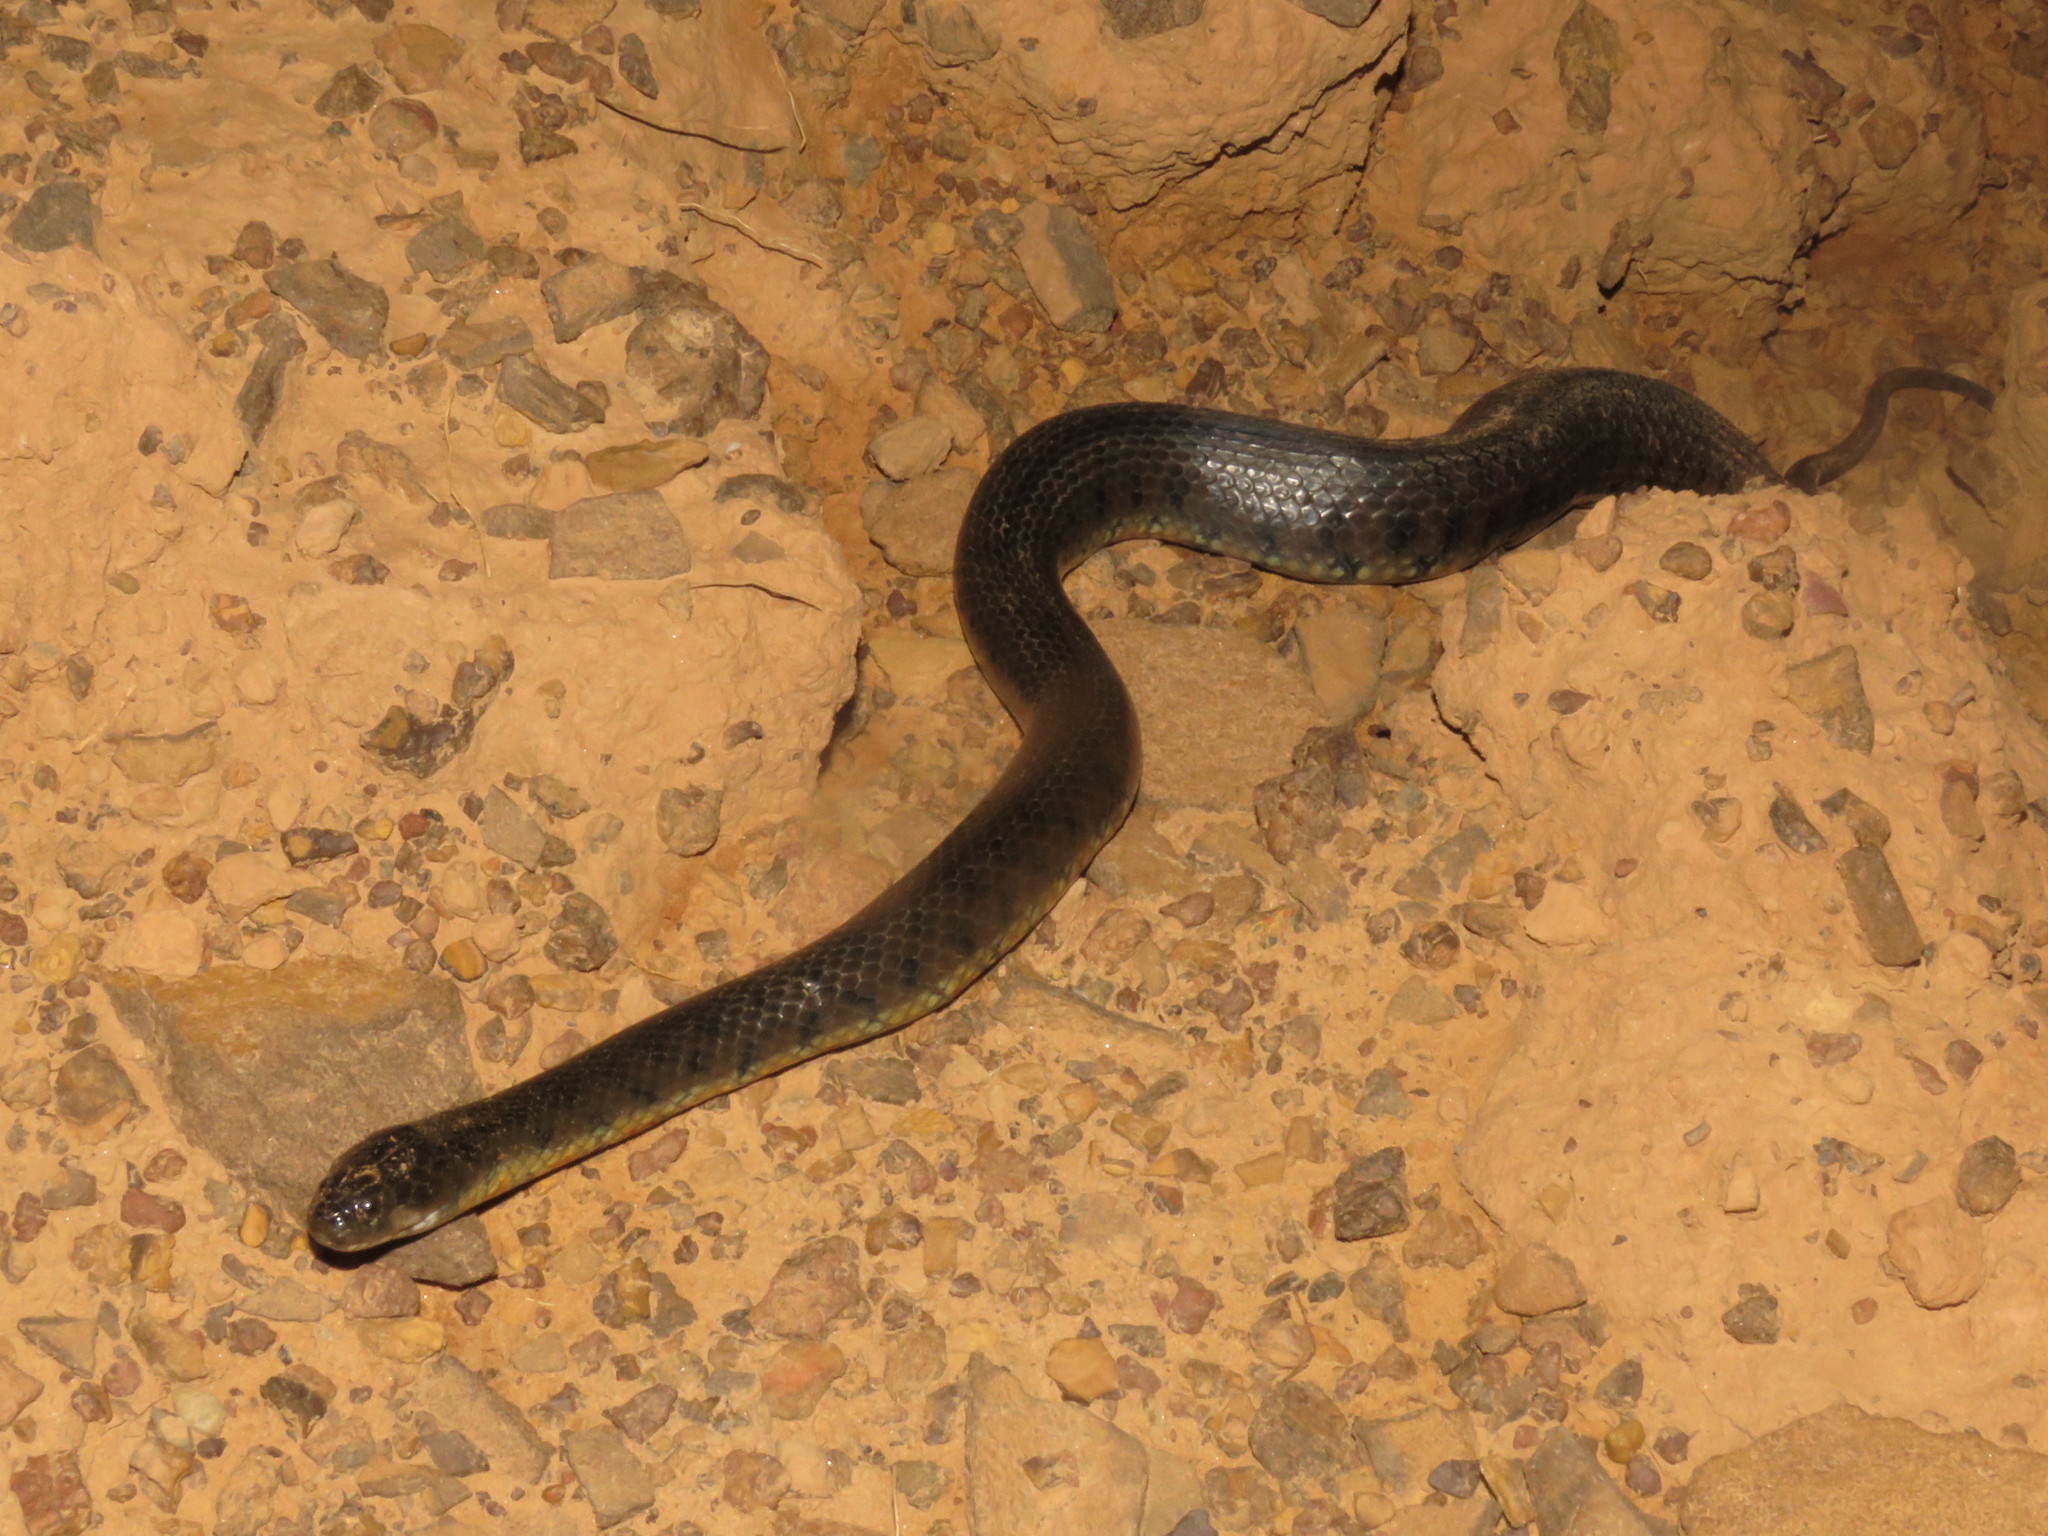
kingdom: Animalia
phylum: Chordata
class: Squamata
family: Colubridae
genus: Helicops
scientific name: Helicops leopardinus
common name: Leopard keelback
